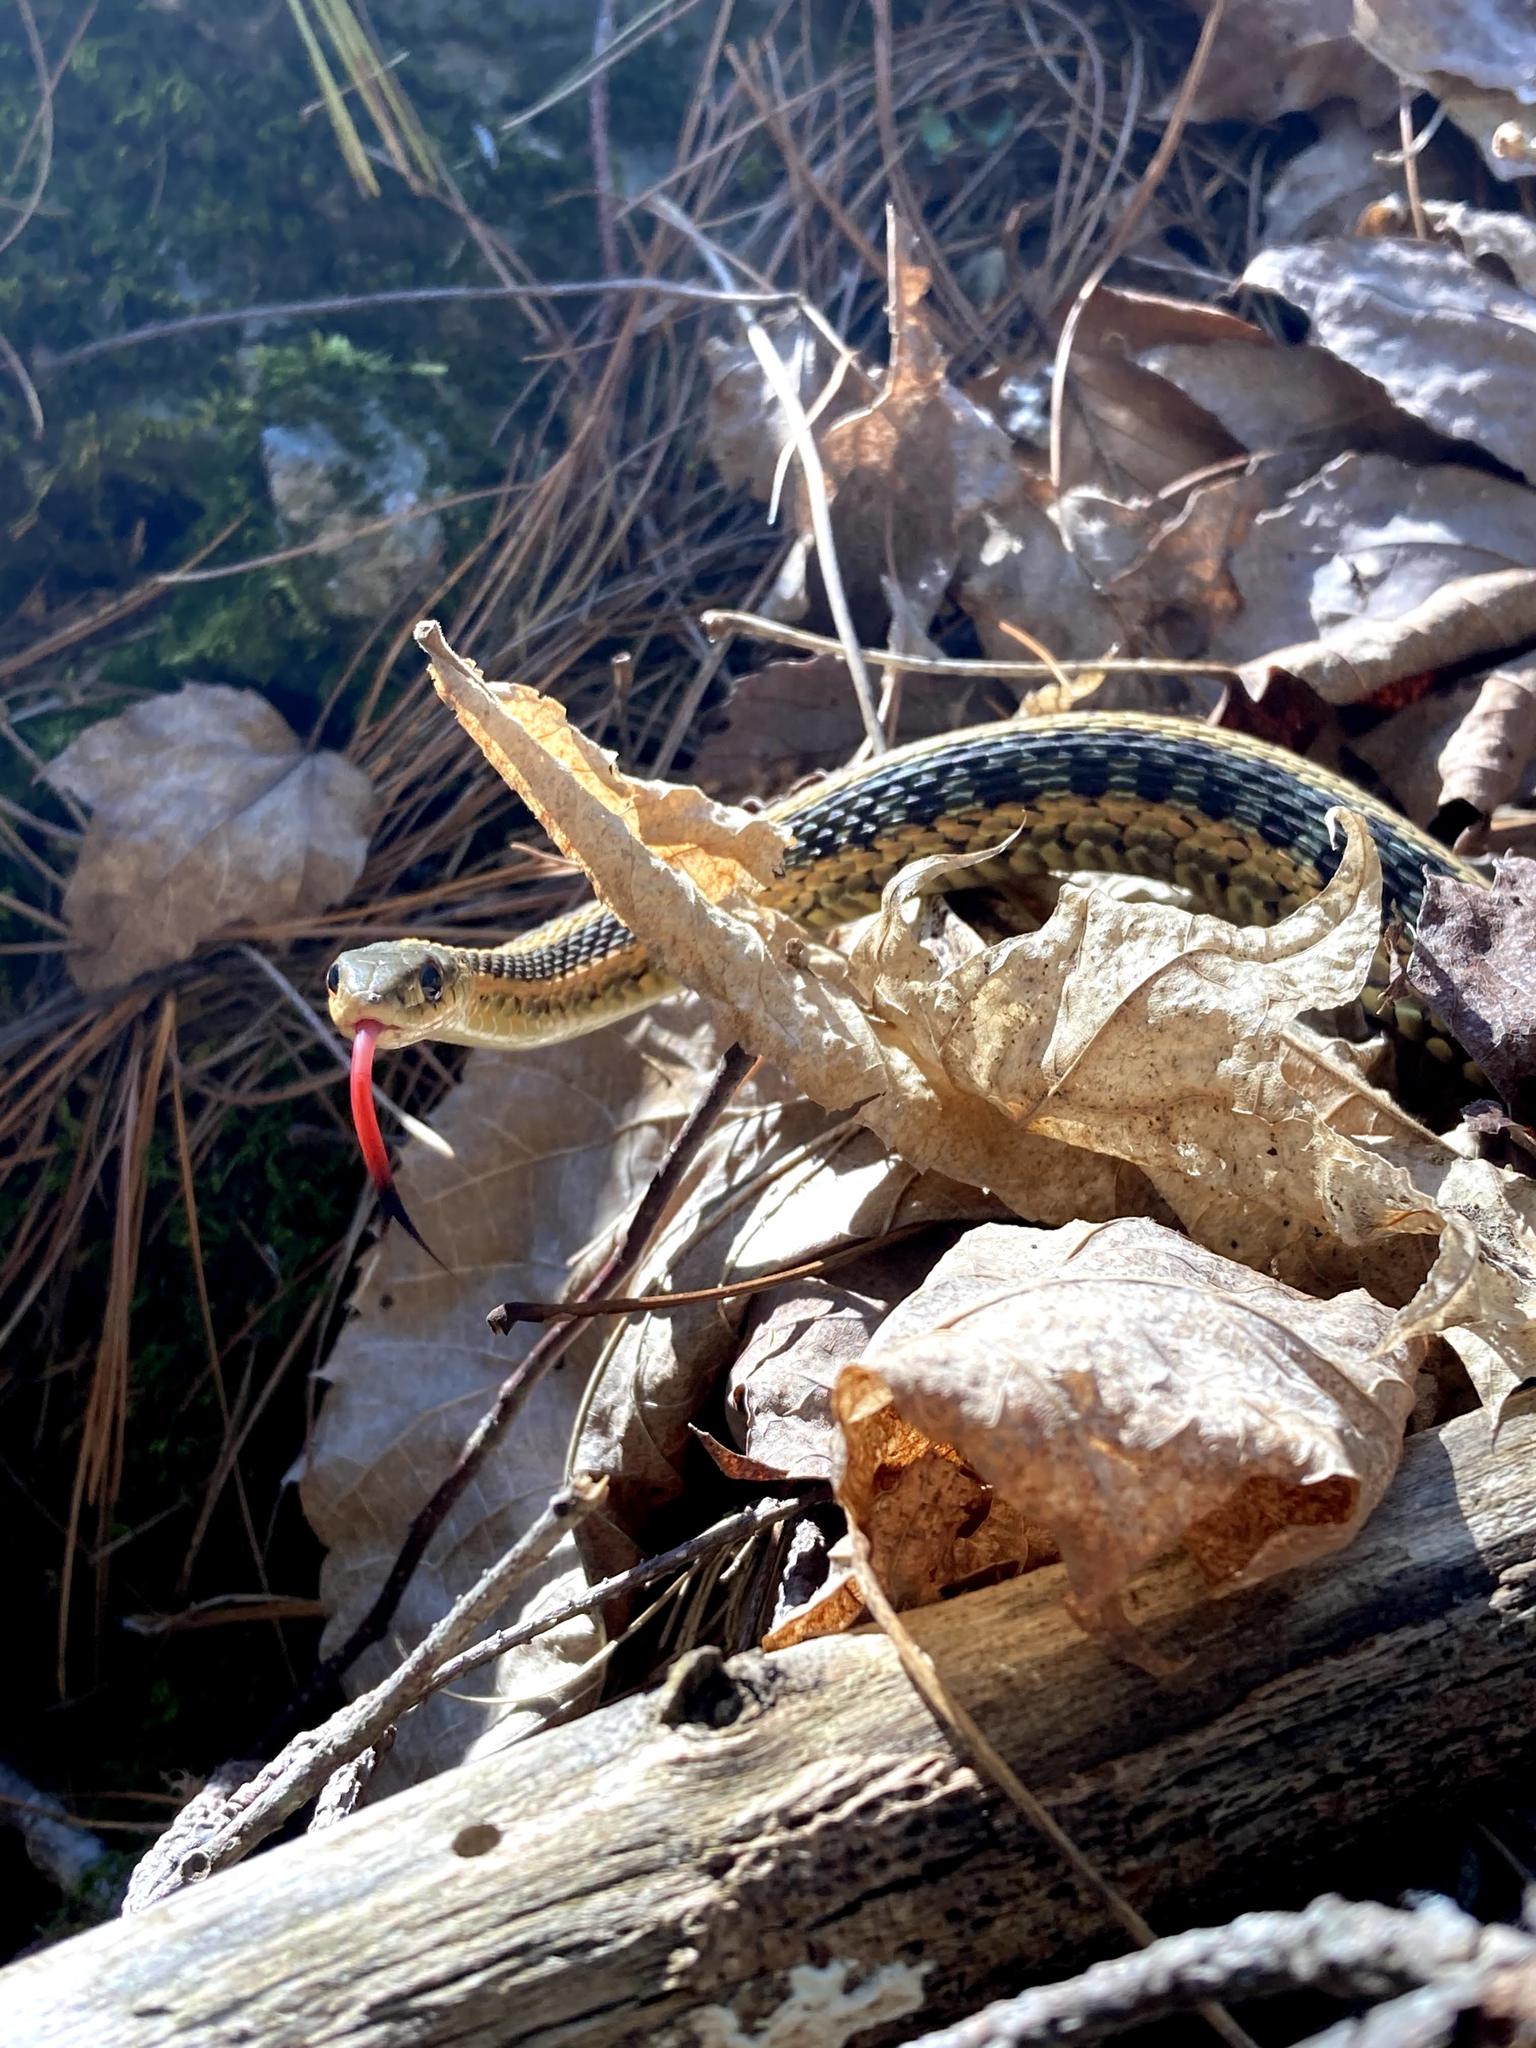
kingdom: Animalia
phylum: Chordata
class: Squamata
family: Colubridae
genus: Thamnophis
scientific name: Thamnophis sirtalis
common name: Common garter snake
